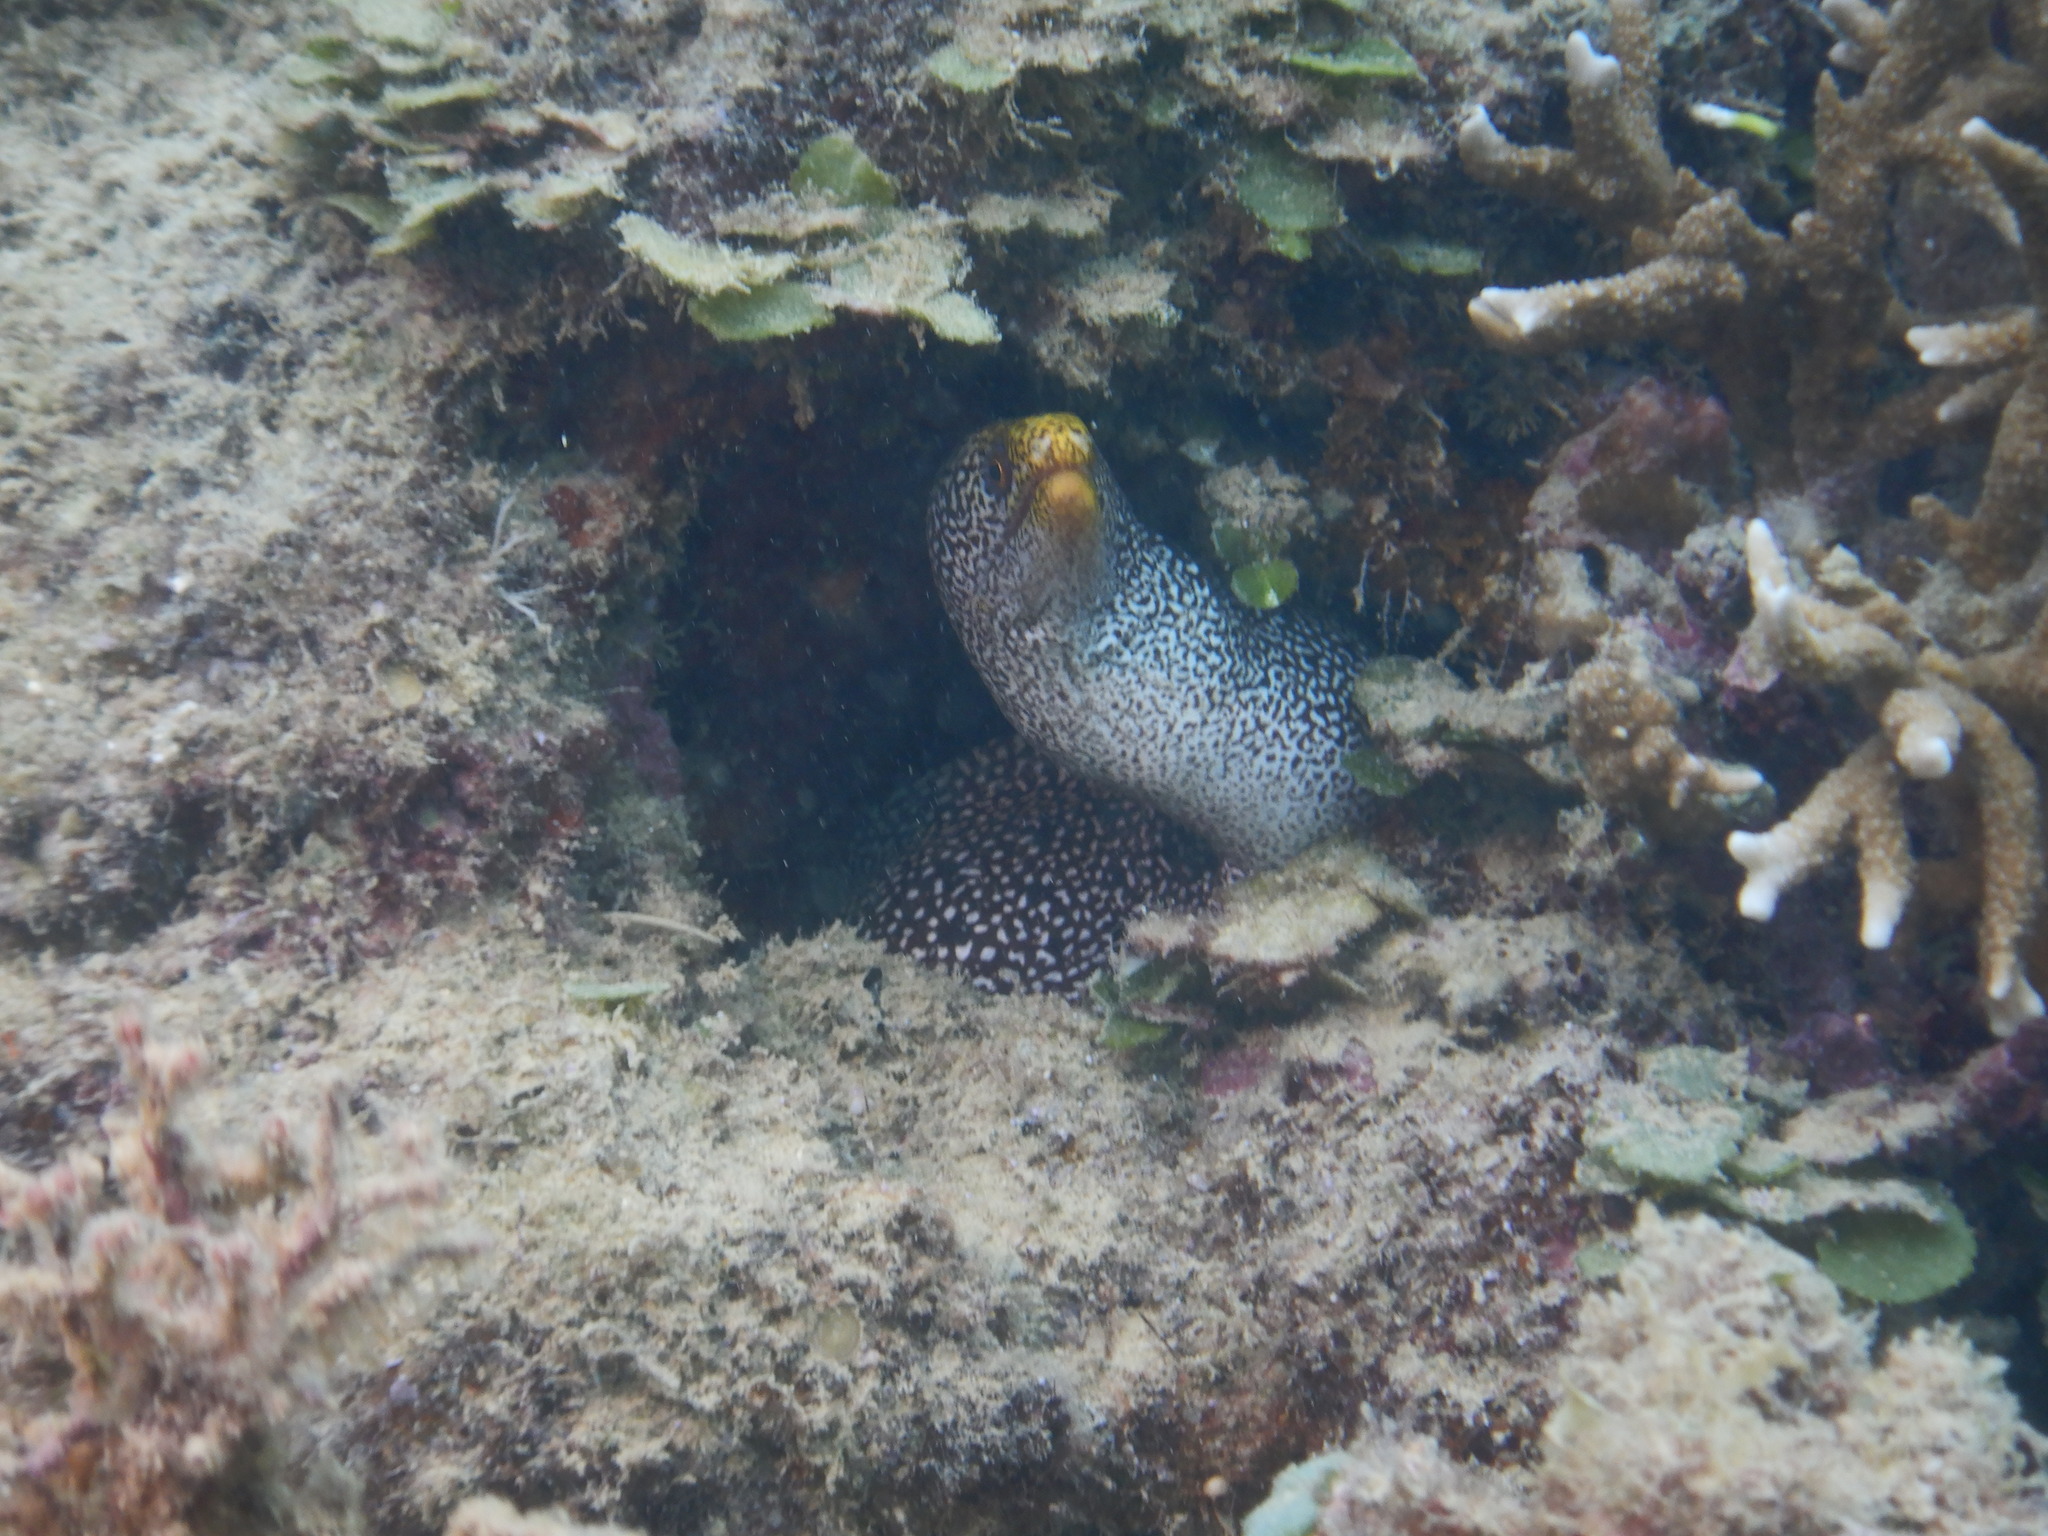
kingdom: Animalia
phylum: Chordata
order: Anguilliformes
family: Muraenidae
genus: Gymnothorax
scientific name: Gymnothorax eurostus
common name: Stout moray
